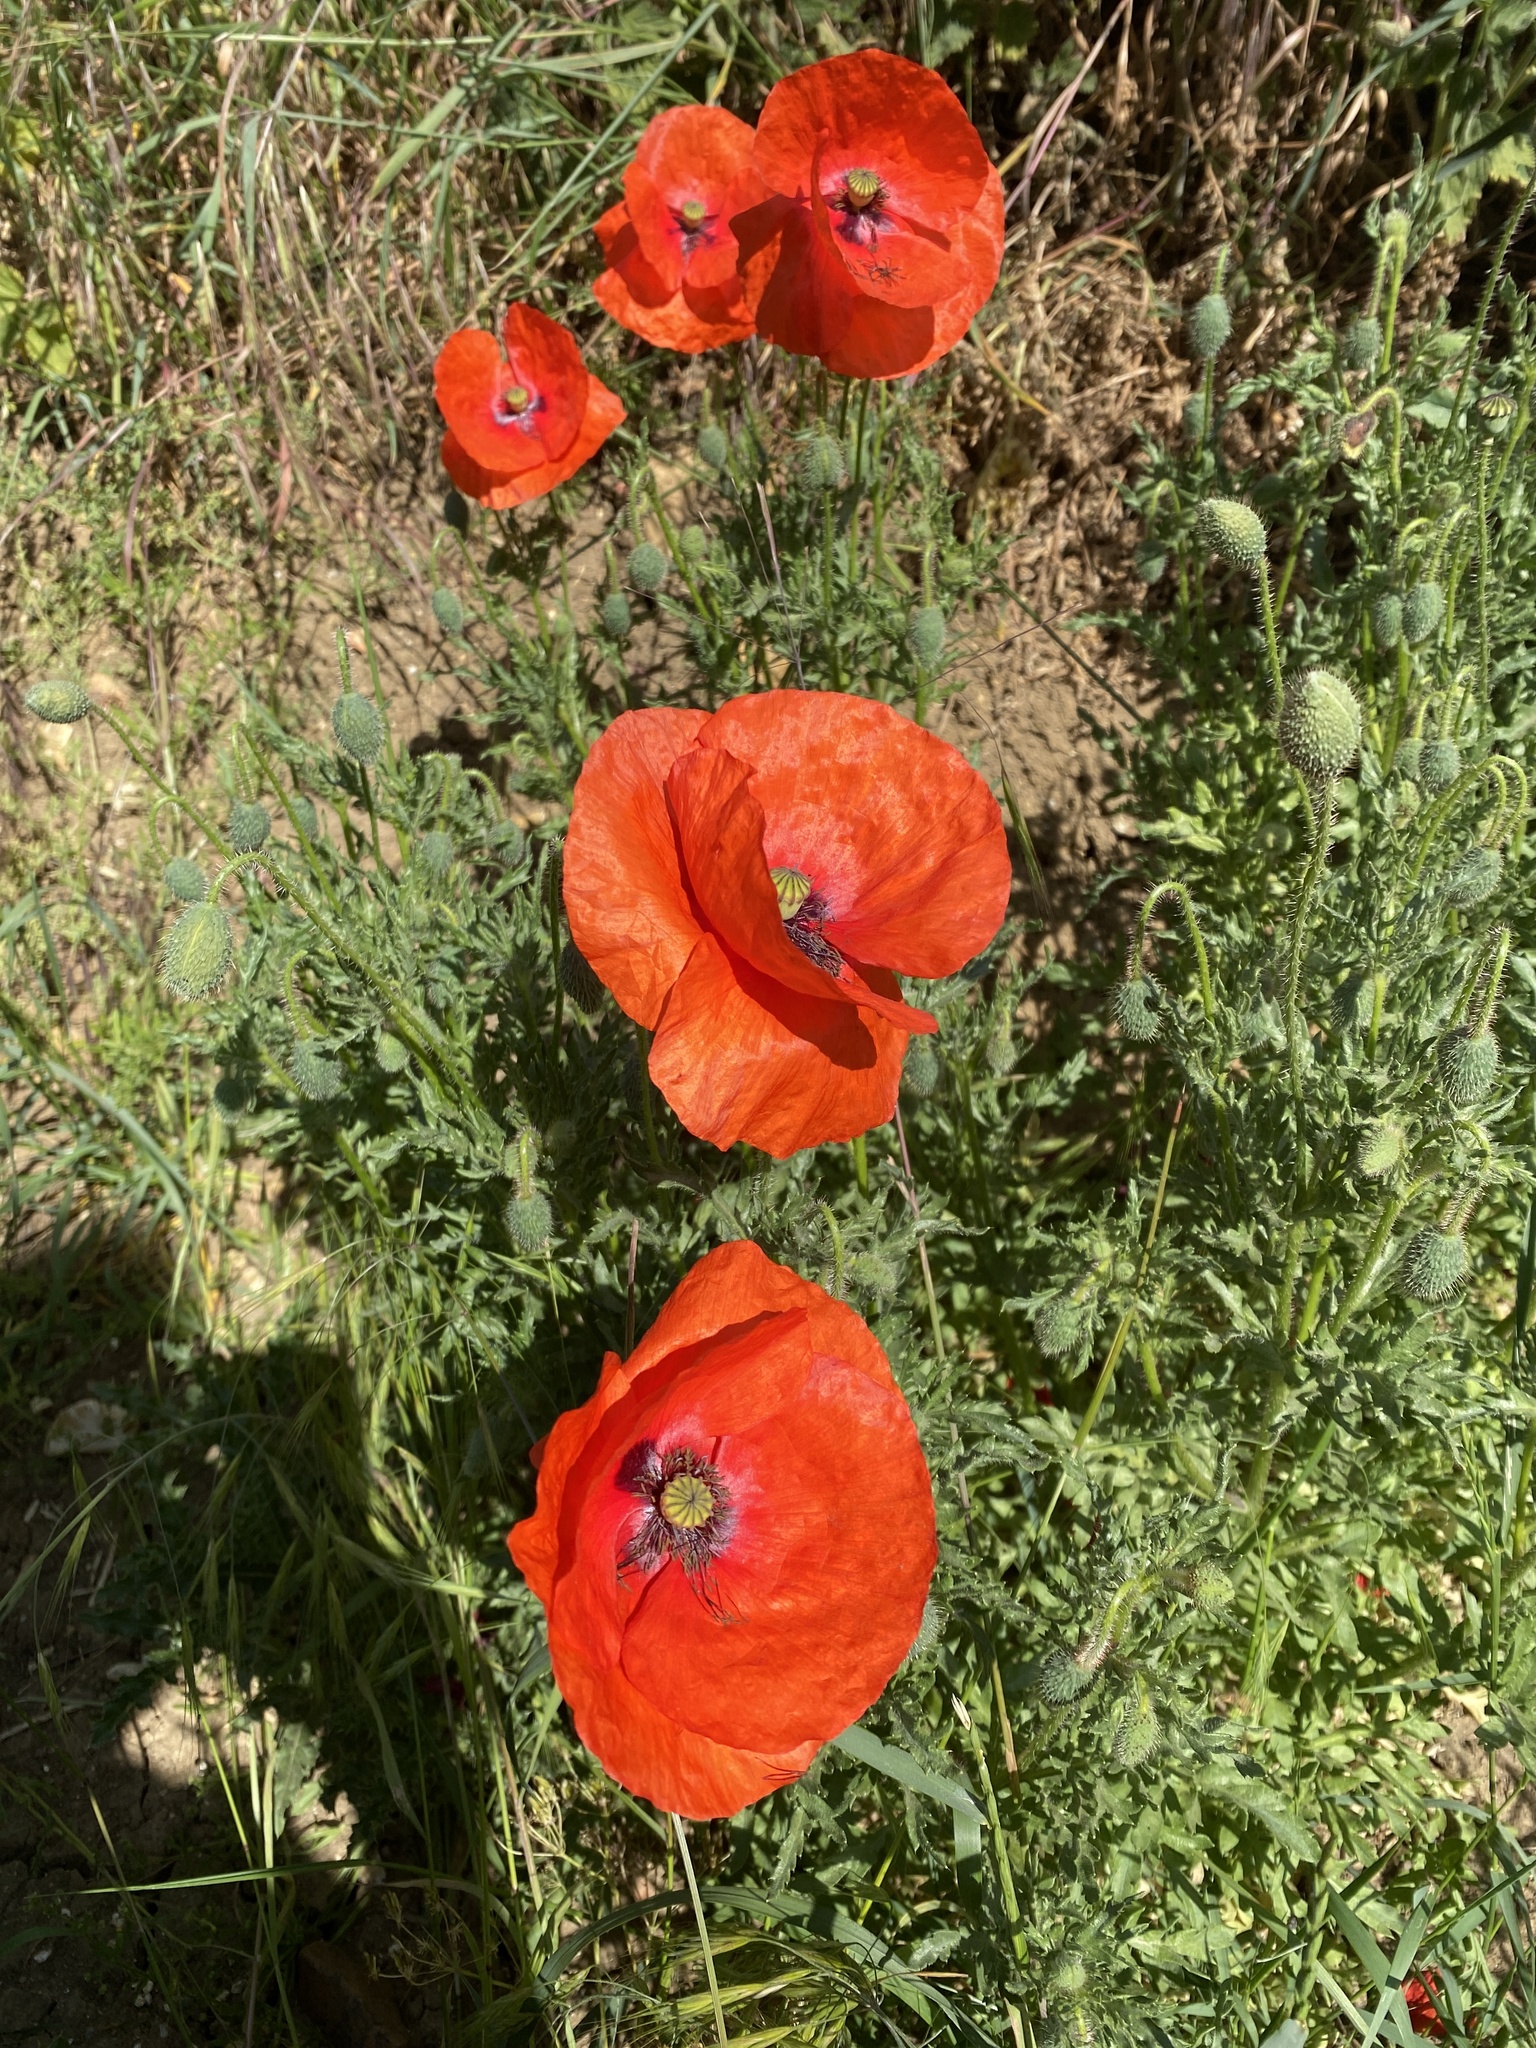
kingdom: Plantae
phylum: Tracheophyta
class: Magnoliopsida
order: Ranunculales
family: Papaveraceae
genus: Papaver
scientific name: Papaver rhoeas
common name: Corn poppy
